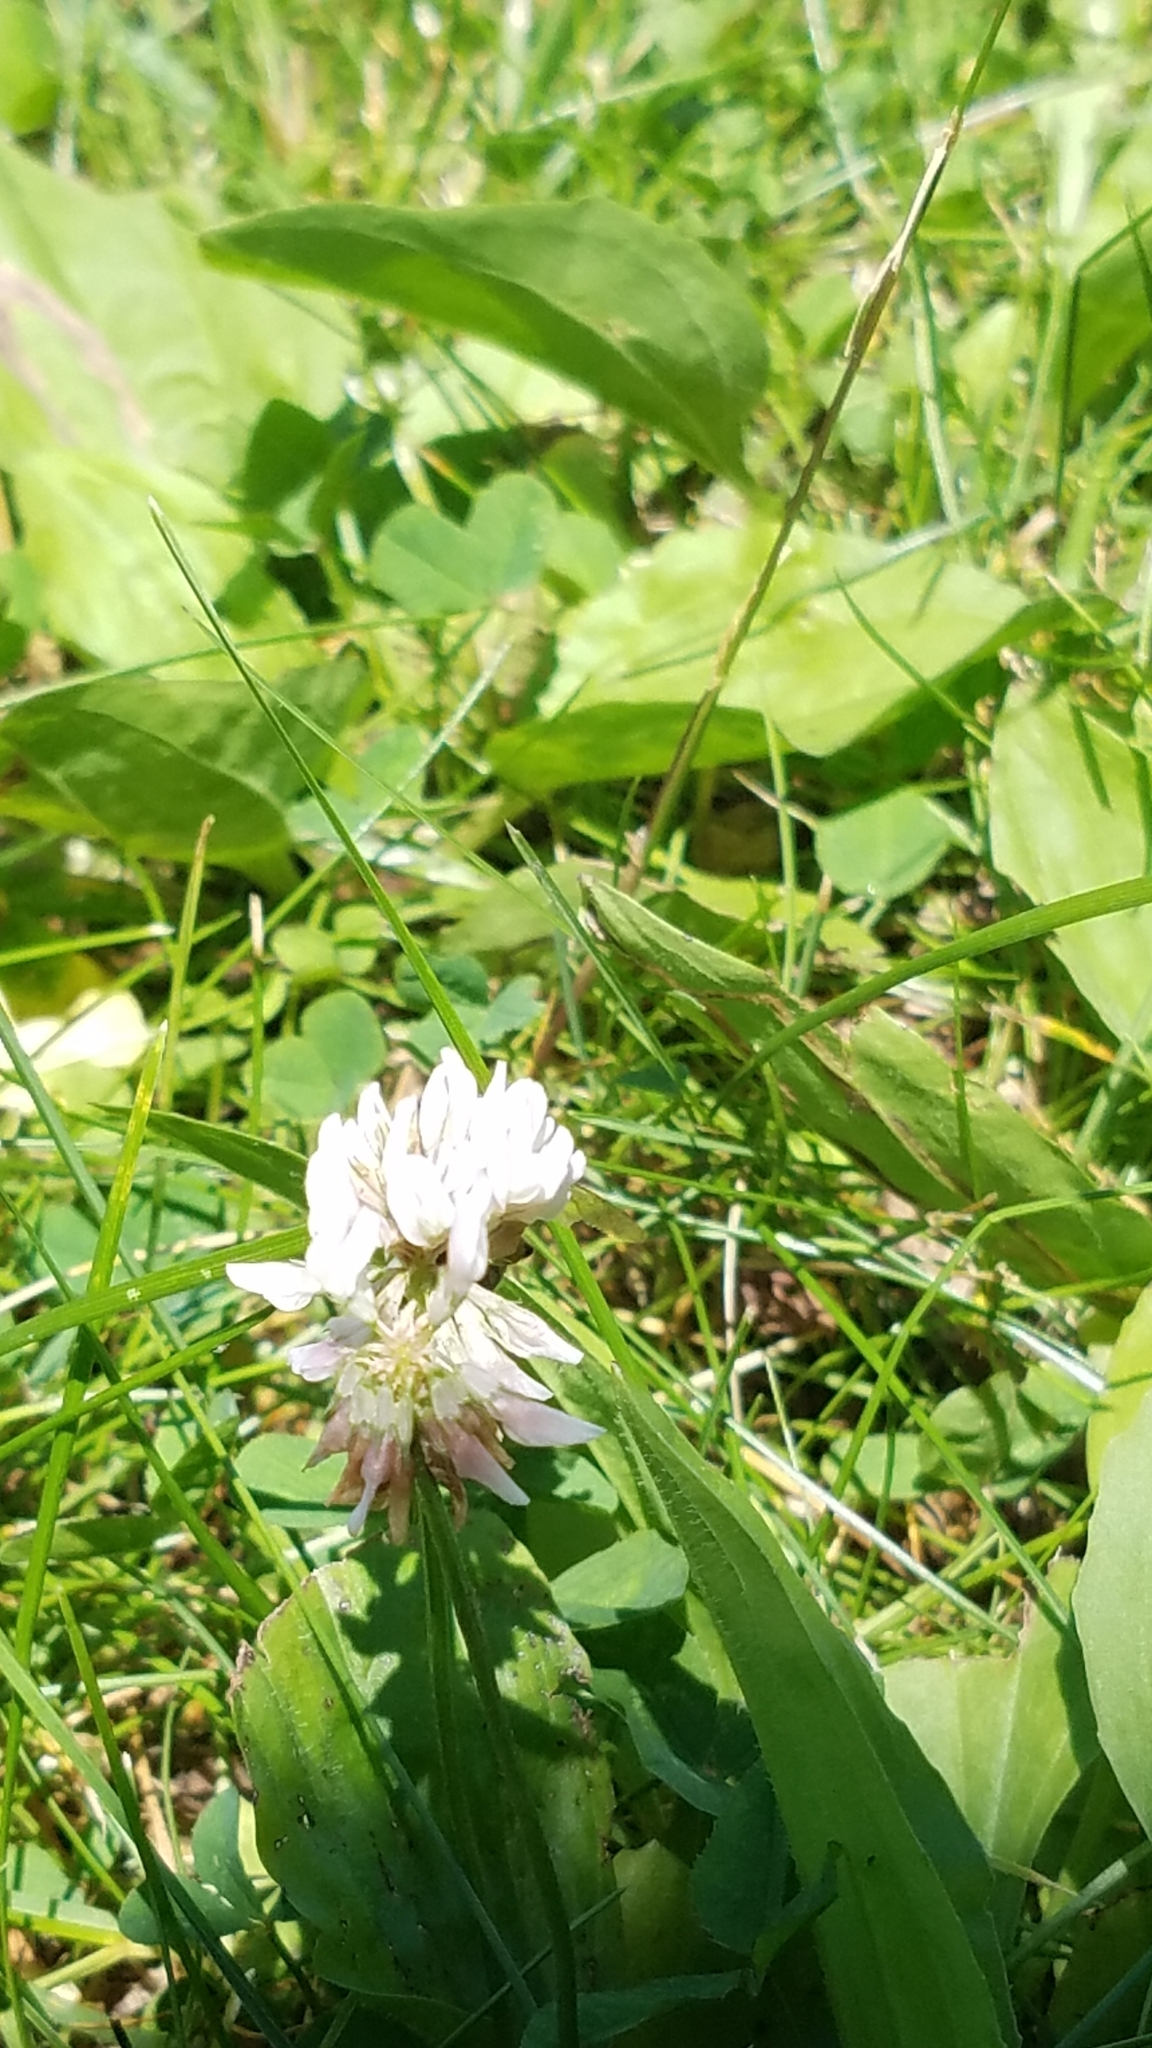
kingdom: Plantae
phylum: Tracheophyta
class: Magnoliopsida
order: Fabales
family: Fabaceae
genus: Trifolium
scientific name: Trifolium repens
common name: White clover
